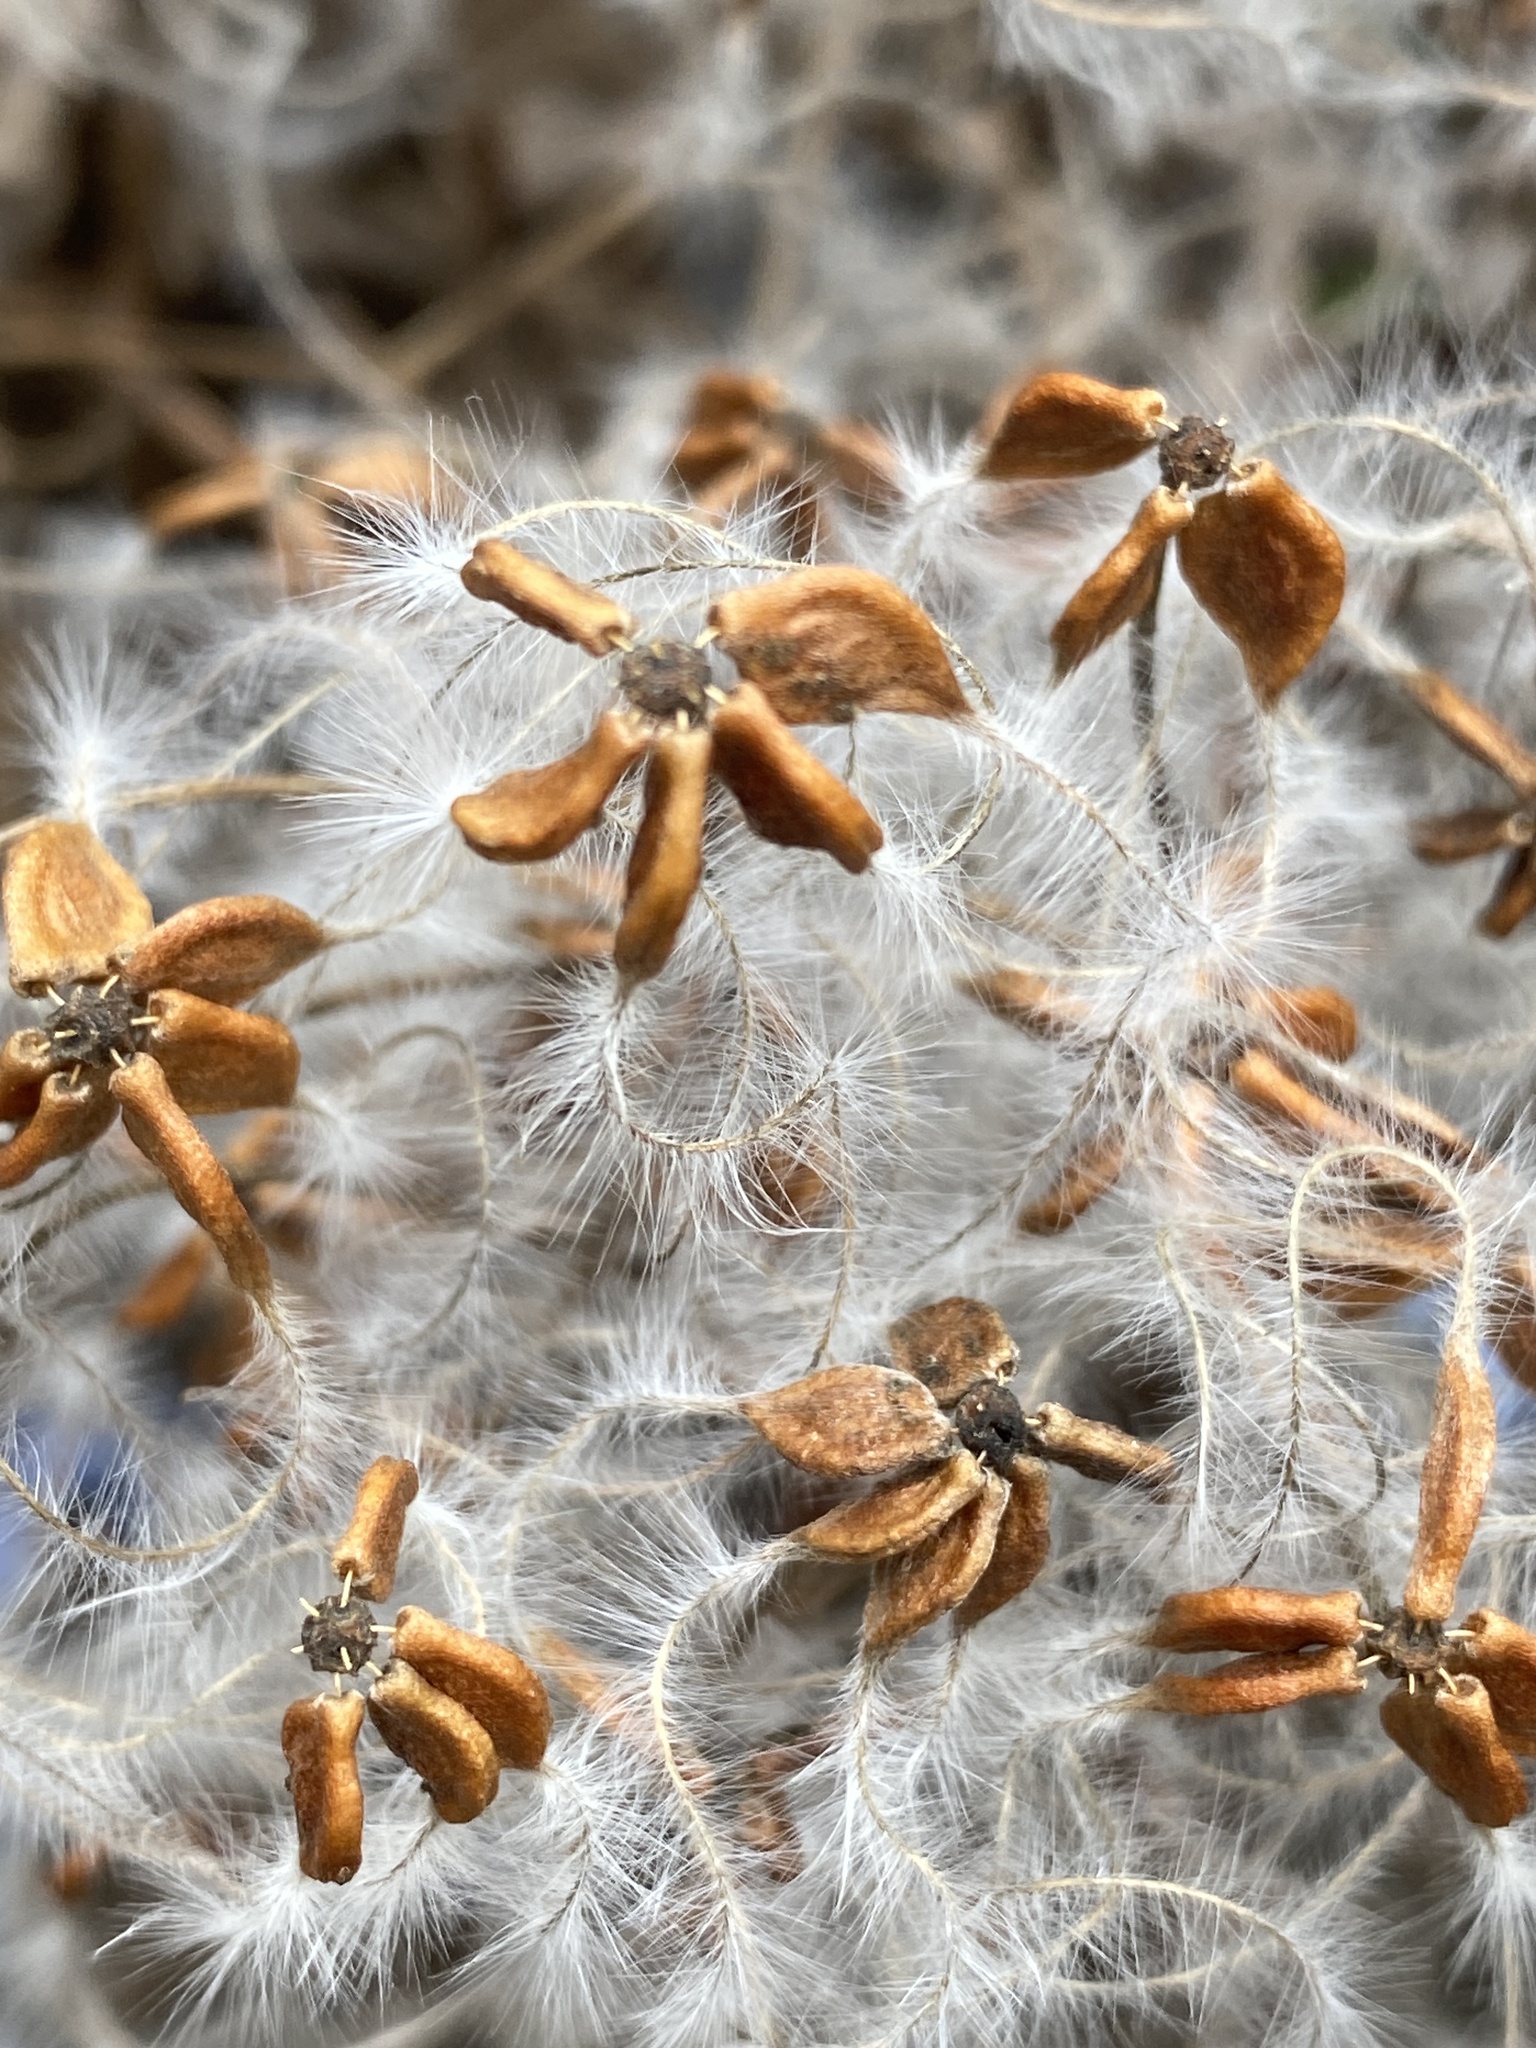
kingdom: Plantae
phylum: Tracheophyta
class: Magnoliopsida
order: Ranunculales
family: Ranunculaceae
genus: Clematis
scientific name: Clematis terniflora
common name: Sweet autumn clematis
